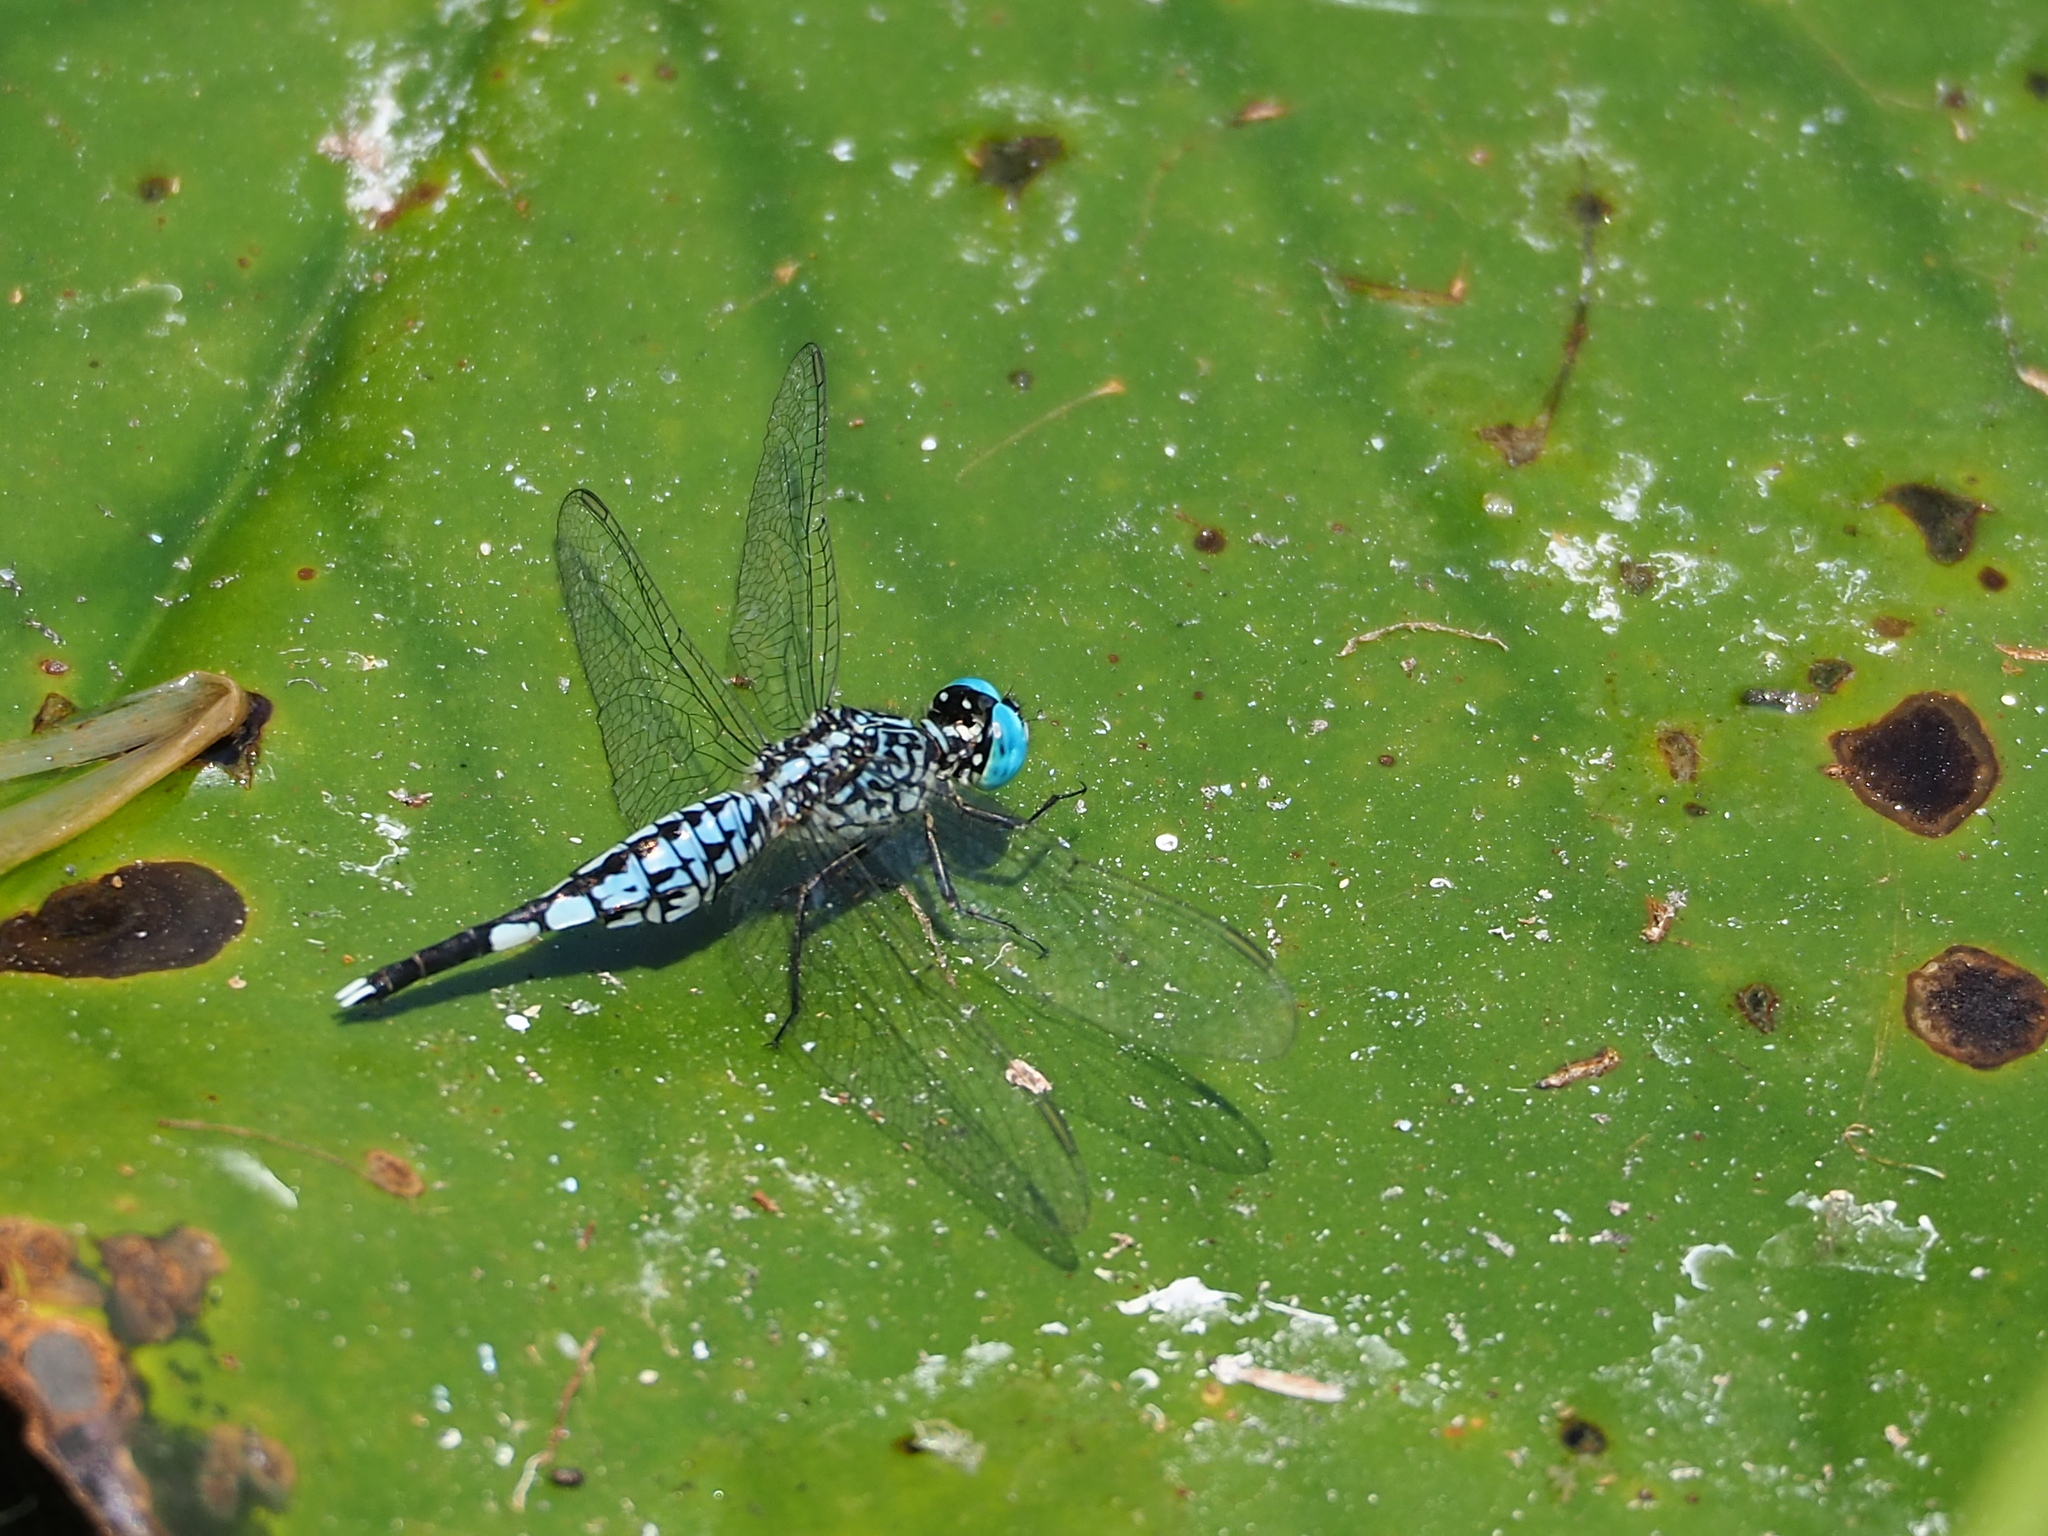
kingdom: Animalia
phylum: Arthropoda
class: Insecta
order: Odonata
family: Libellulidae
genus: Acisoma
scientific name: Acisoma panorpoides
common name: Asian pintail
